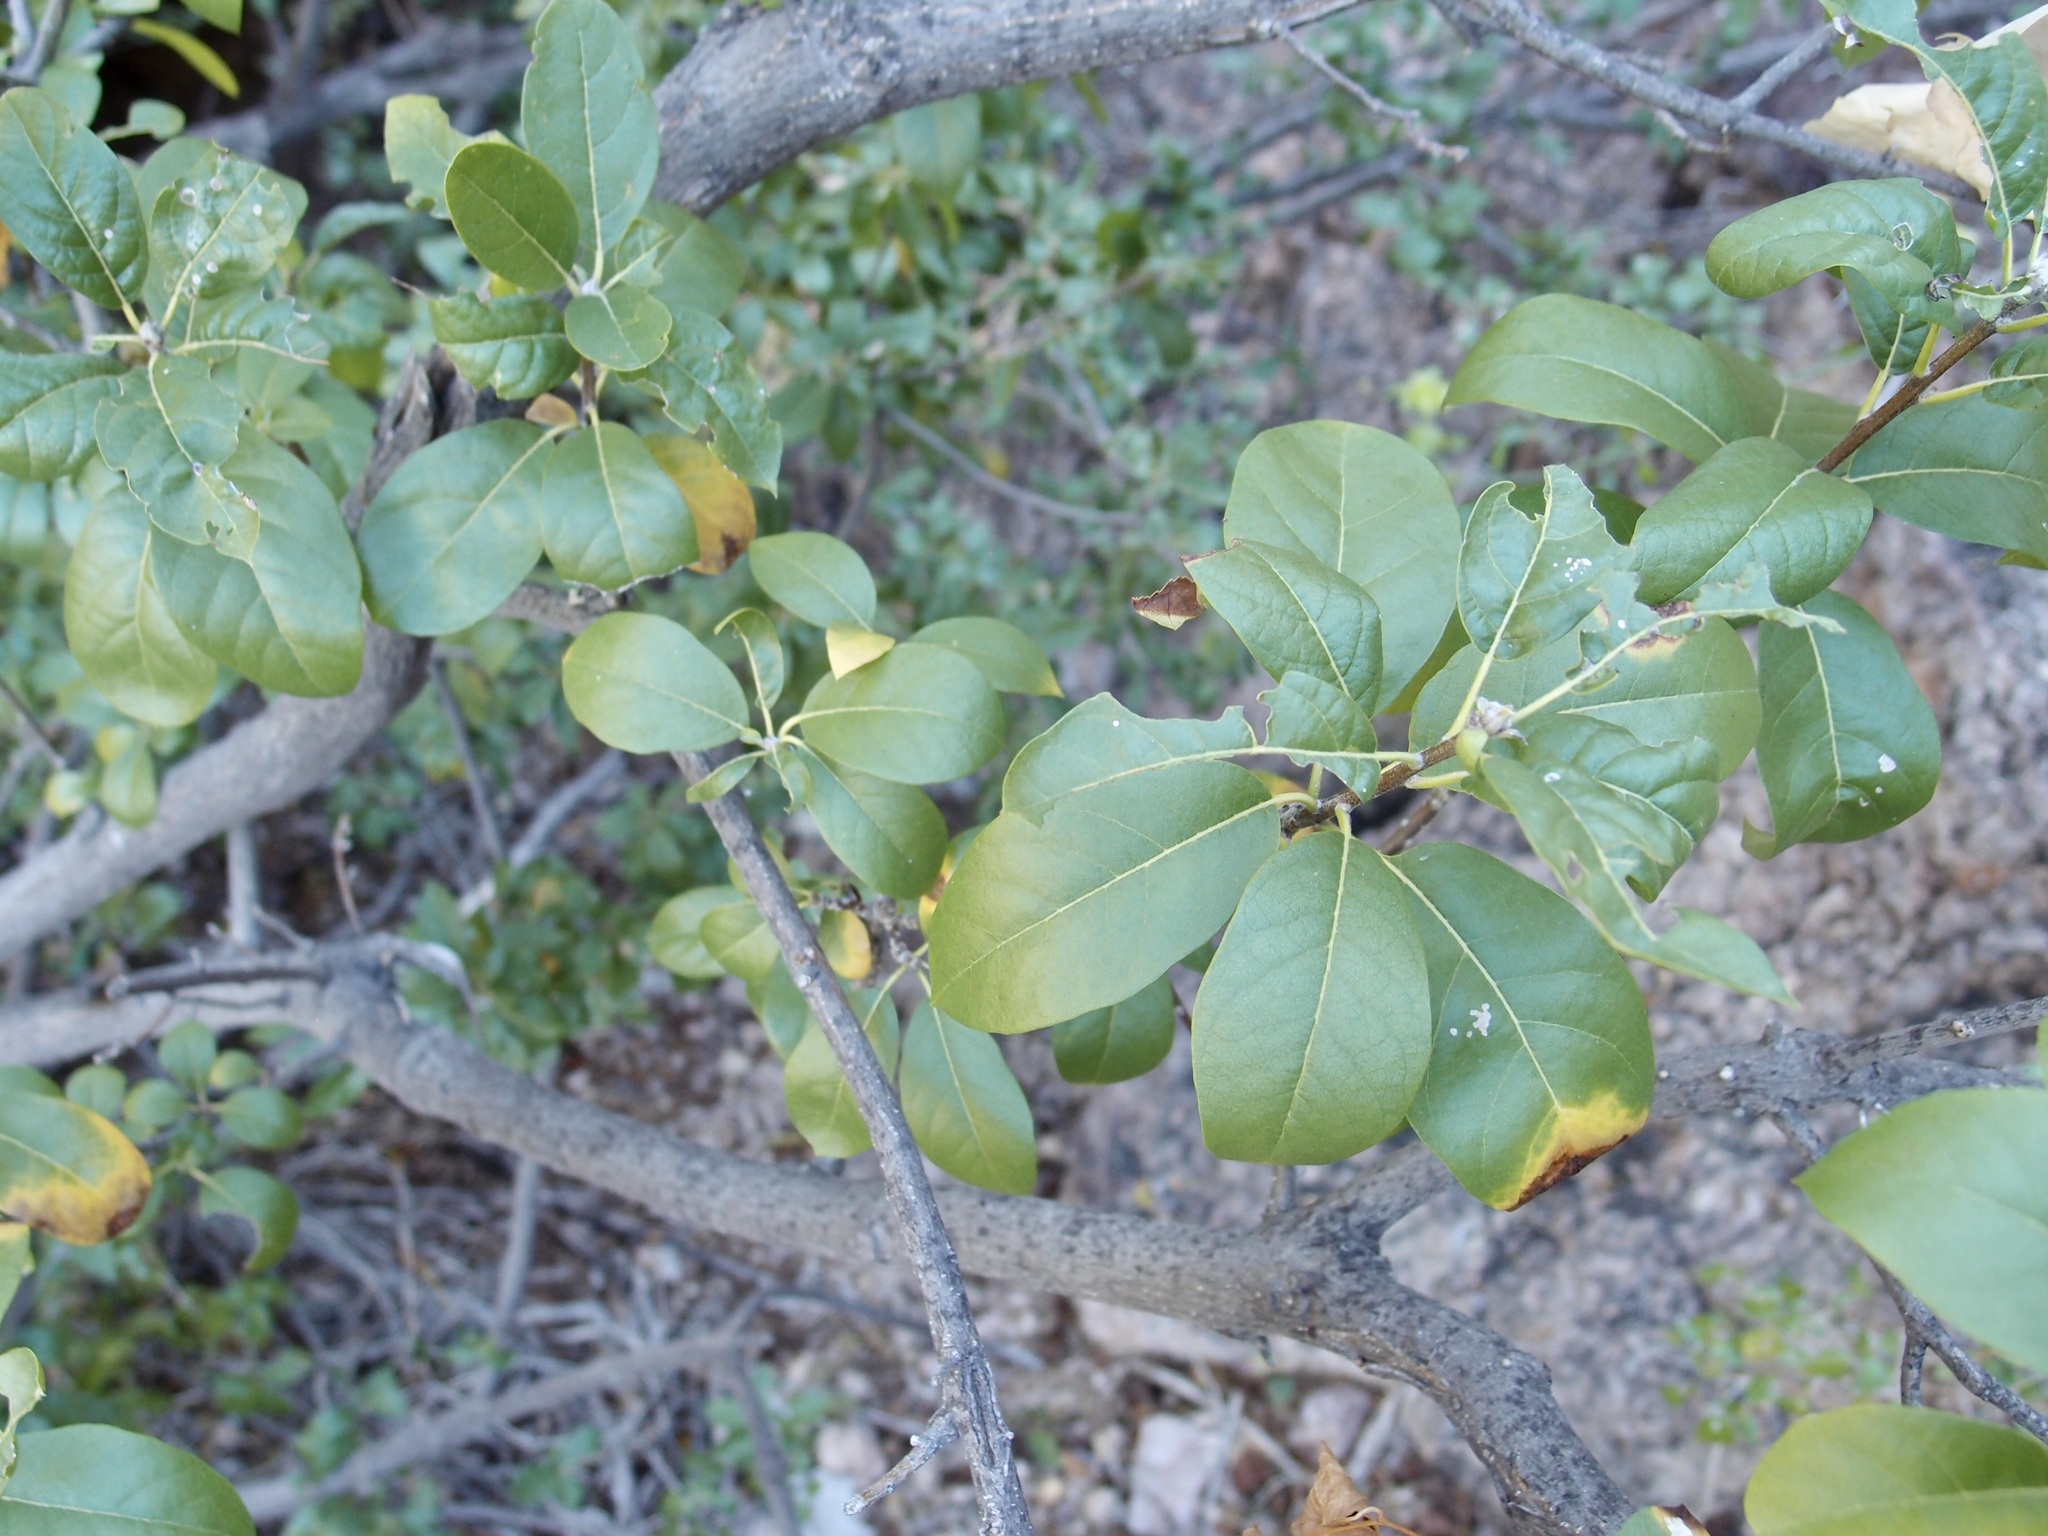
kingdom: Plantae
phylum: Tracheophyta
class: Magnoliopsida
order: Gentianales
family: Rubiaceae
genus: Hintonia
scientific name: Hintonia latiflora
